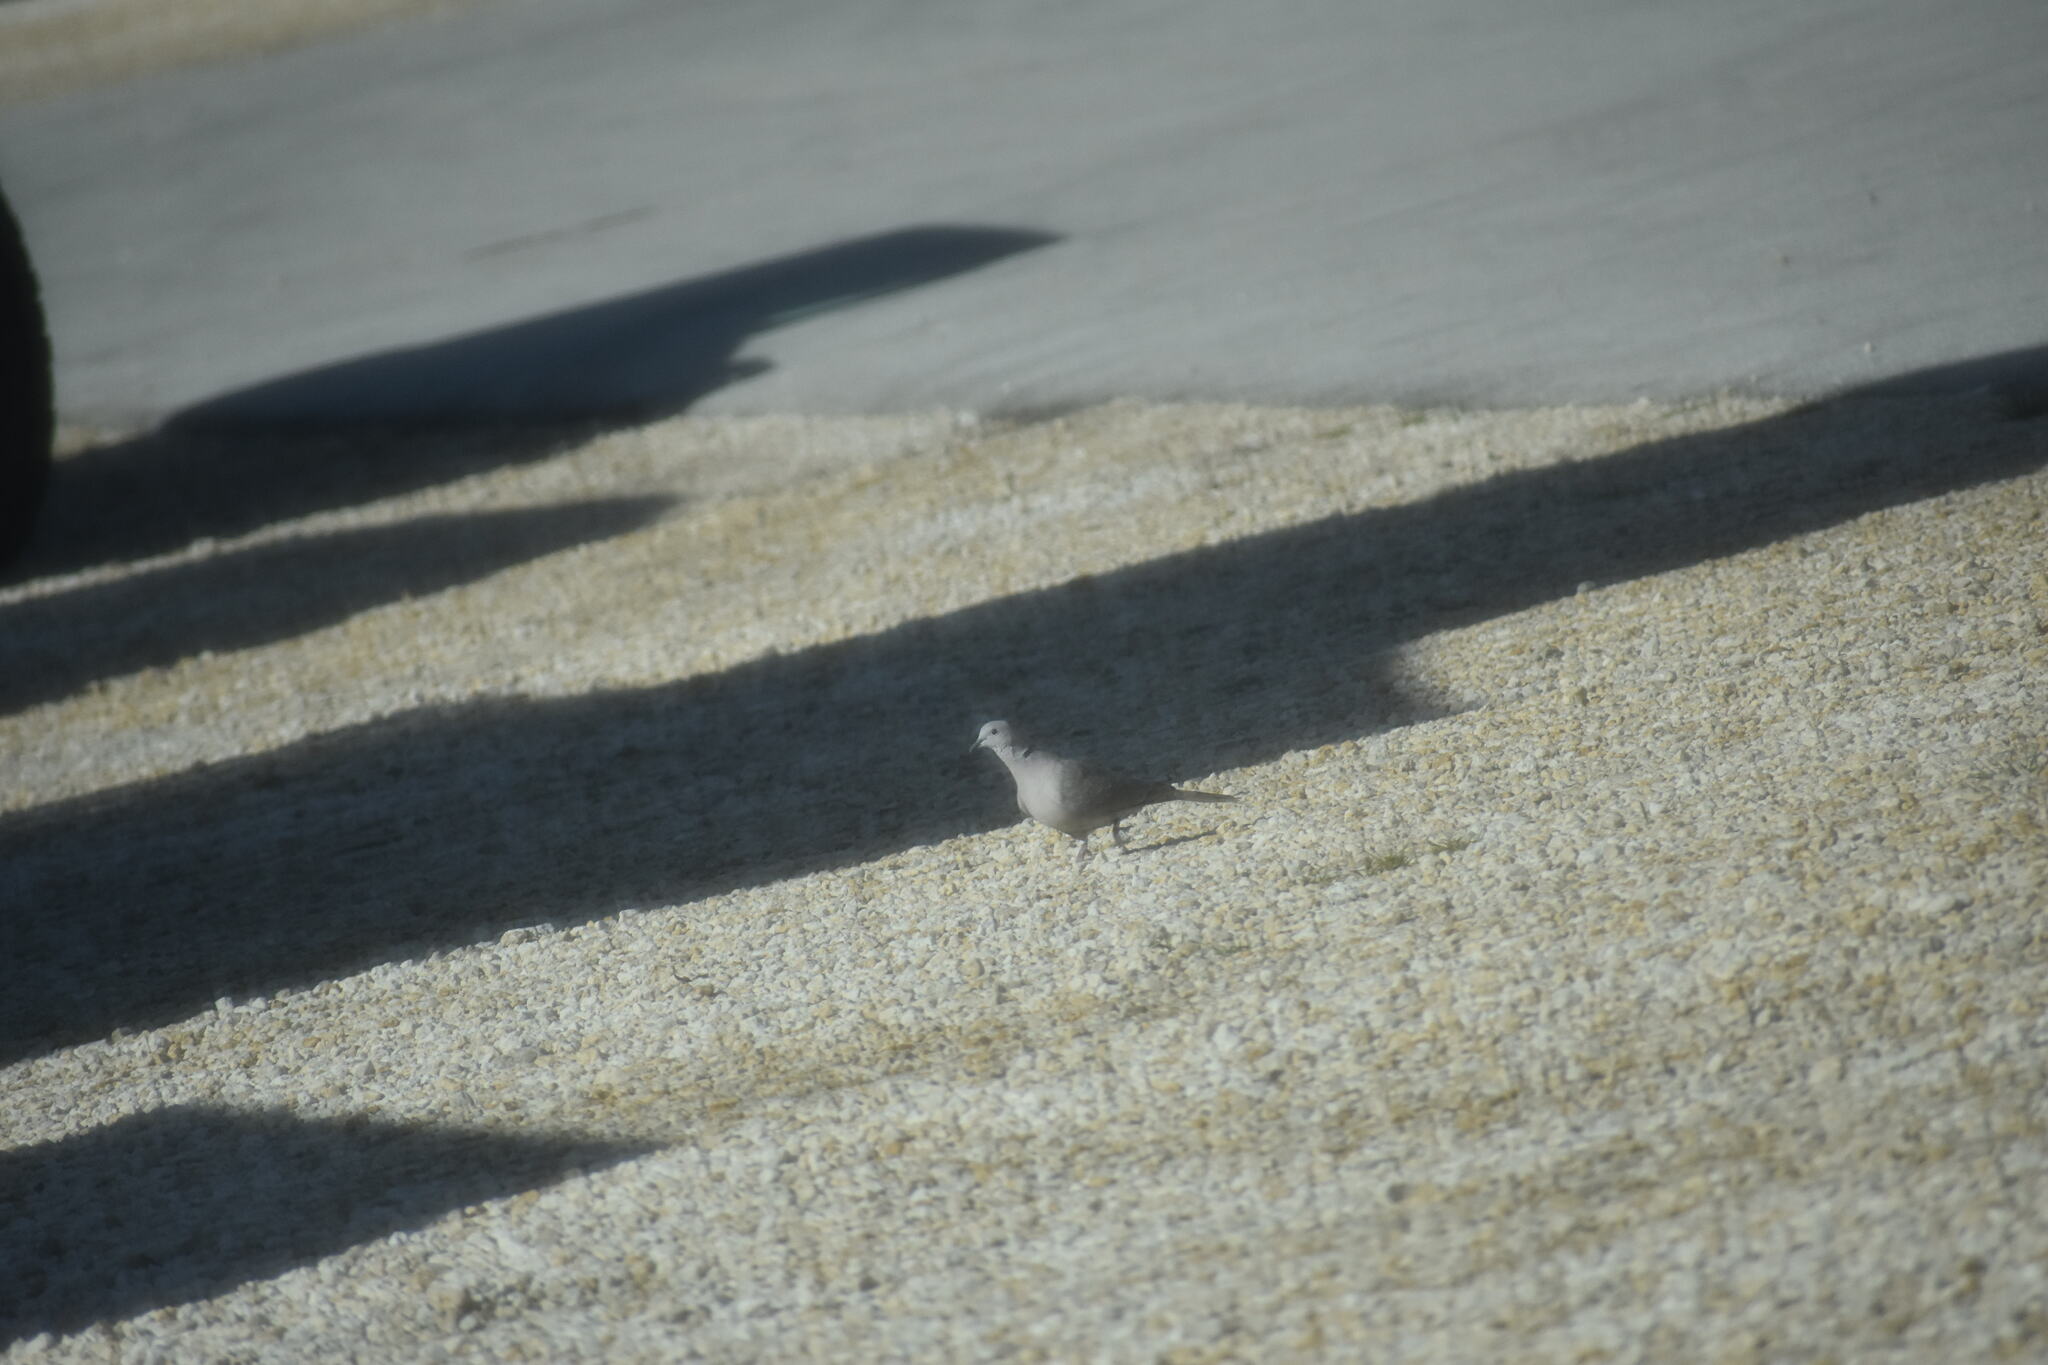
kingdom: Animalia
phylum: Chordata
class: Aves
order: Columbiformes
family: Columbidae
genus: Streptopelia
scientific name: Streptopelia decaocto
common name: Eurasian collared dove
